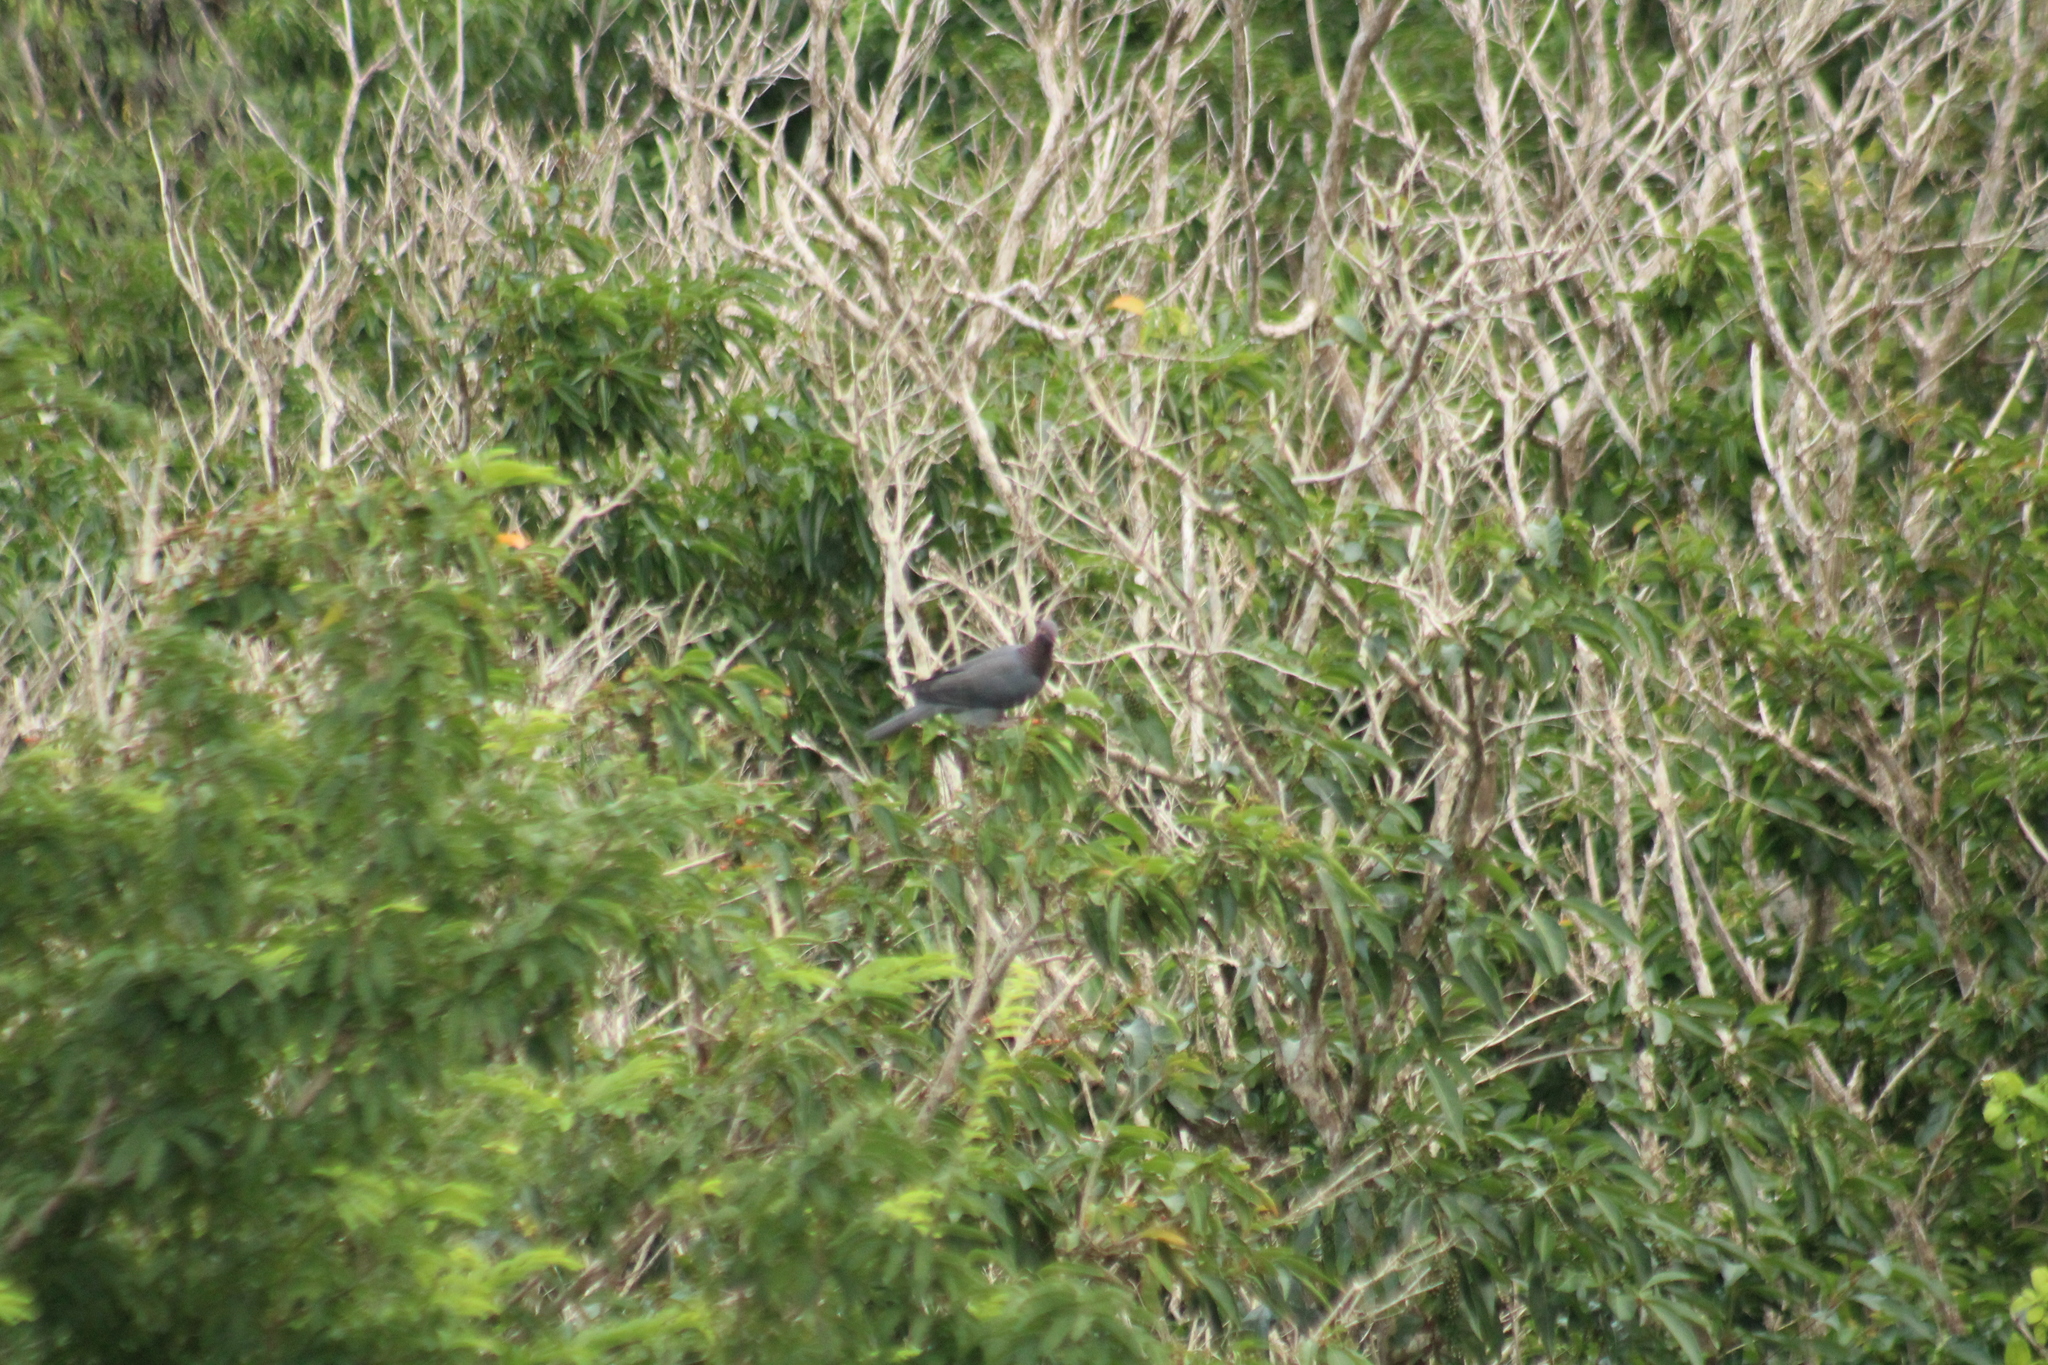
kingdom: Animalia
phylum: Chordata
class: Aves
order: Columbiformes
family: Columbidae
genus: Patagioenas
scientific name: Patagioenas squamosa
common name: Scaly-naped pigeon
